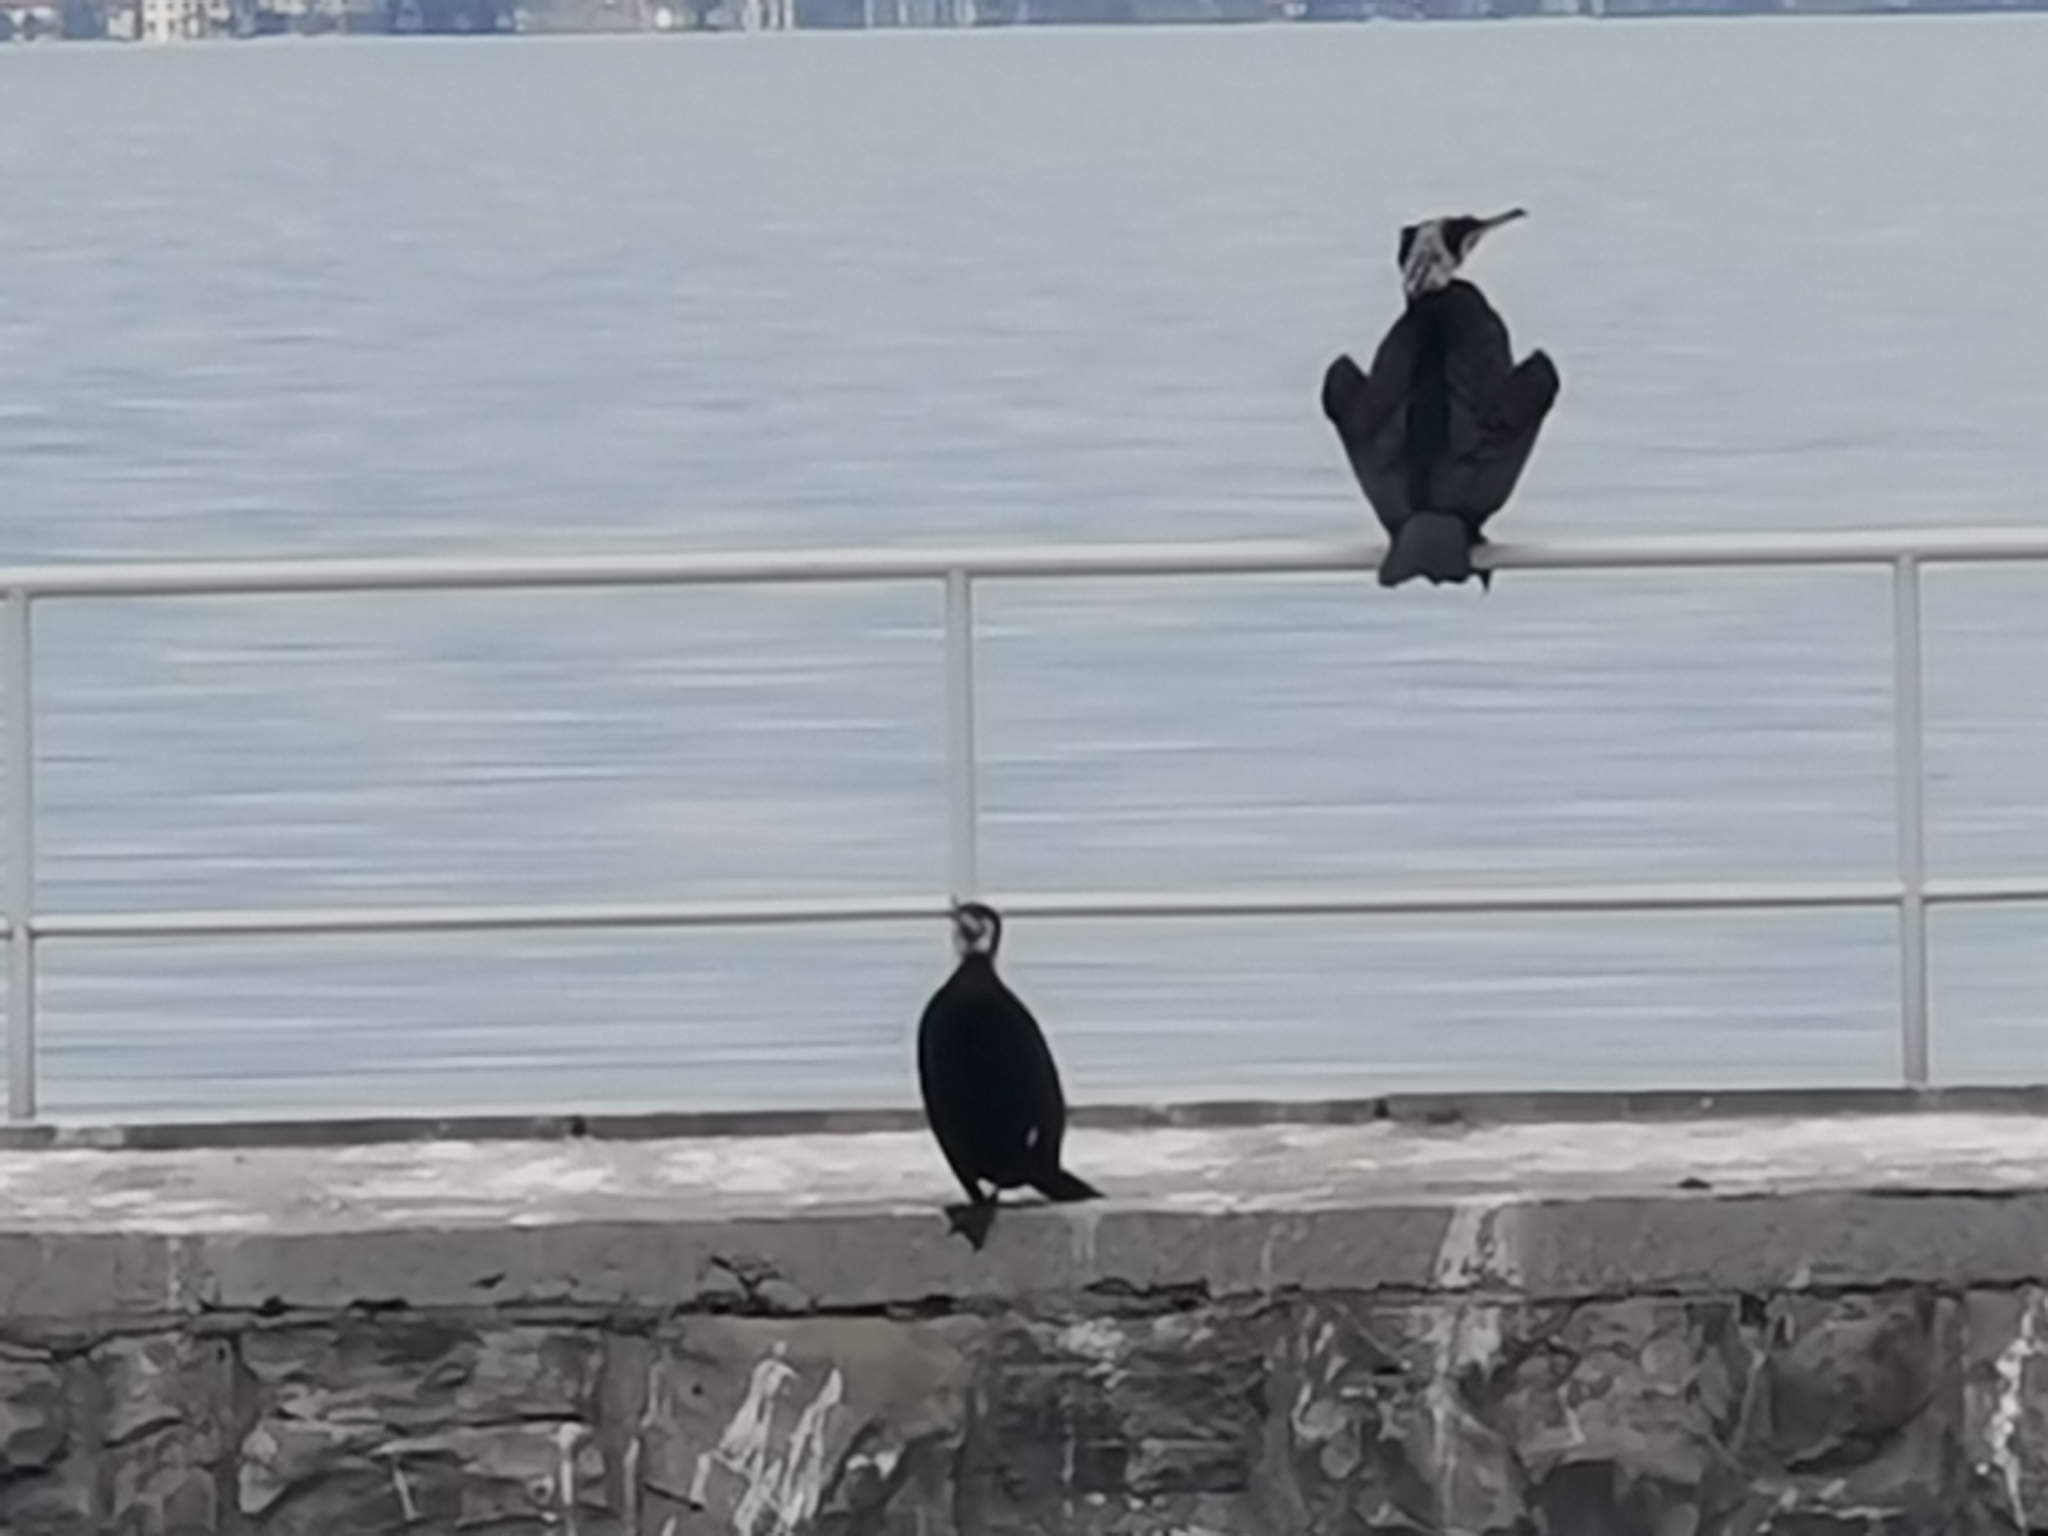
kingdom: Animalia
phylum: Chordata
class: Aves
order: Suliformes
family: Phalacrocoracidae
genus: Phalacrocorax
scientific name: Phalacrocorax carbo
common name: Great cormorant
